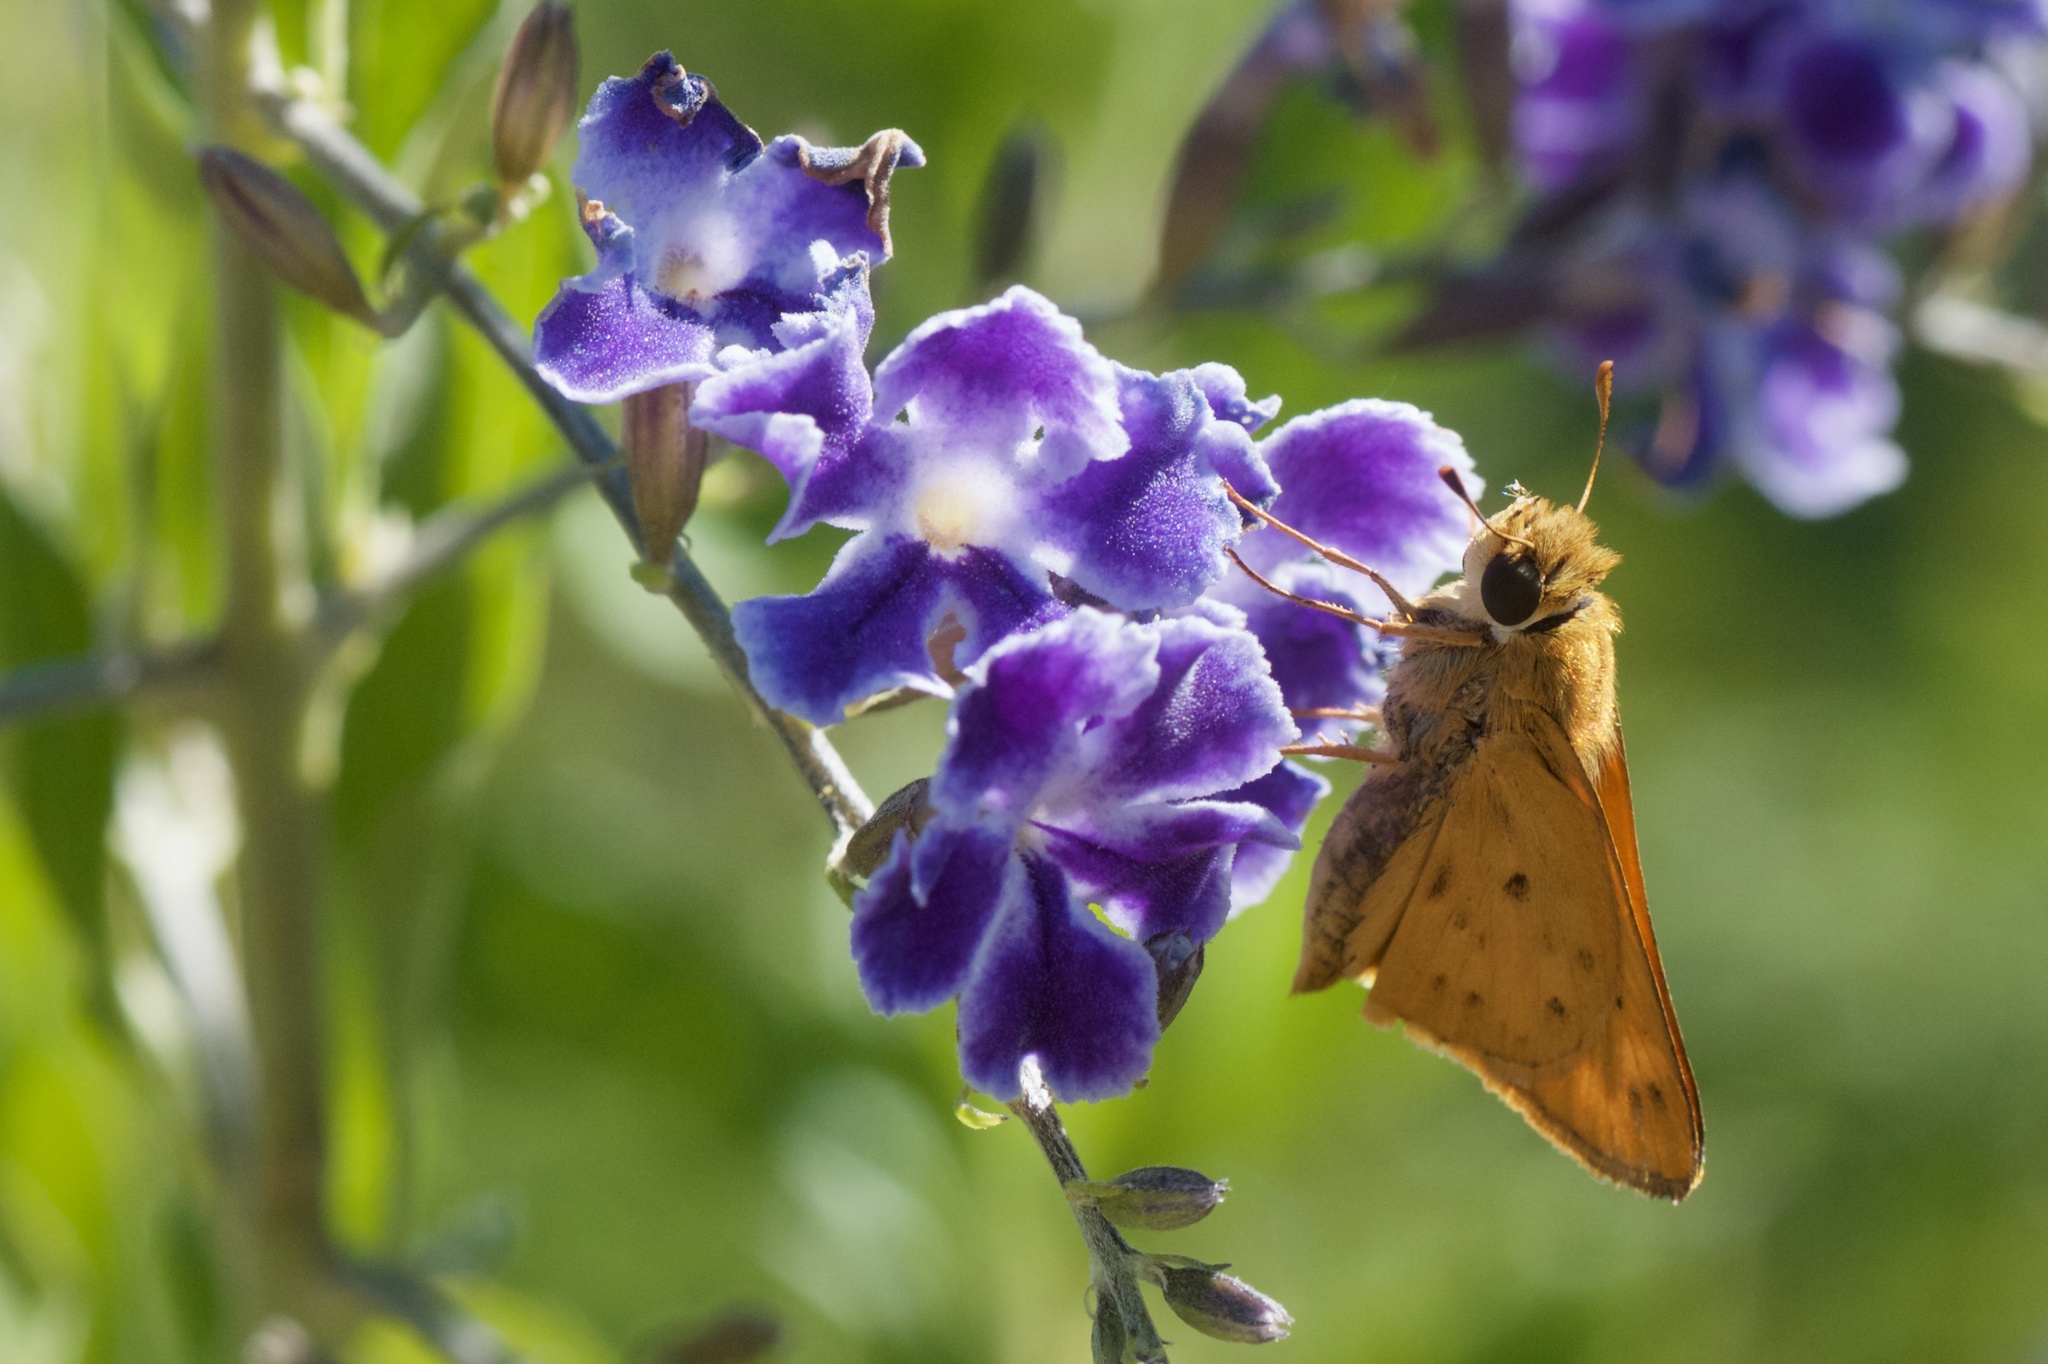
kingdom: Animalia
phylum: Arthropoda
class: Insecta
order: Lepidoptera
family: Hesperiidae
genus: Hylephila
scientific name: Hylephila phyleus
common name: Fiery skipper
